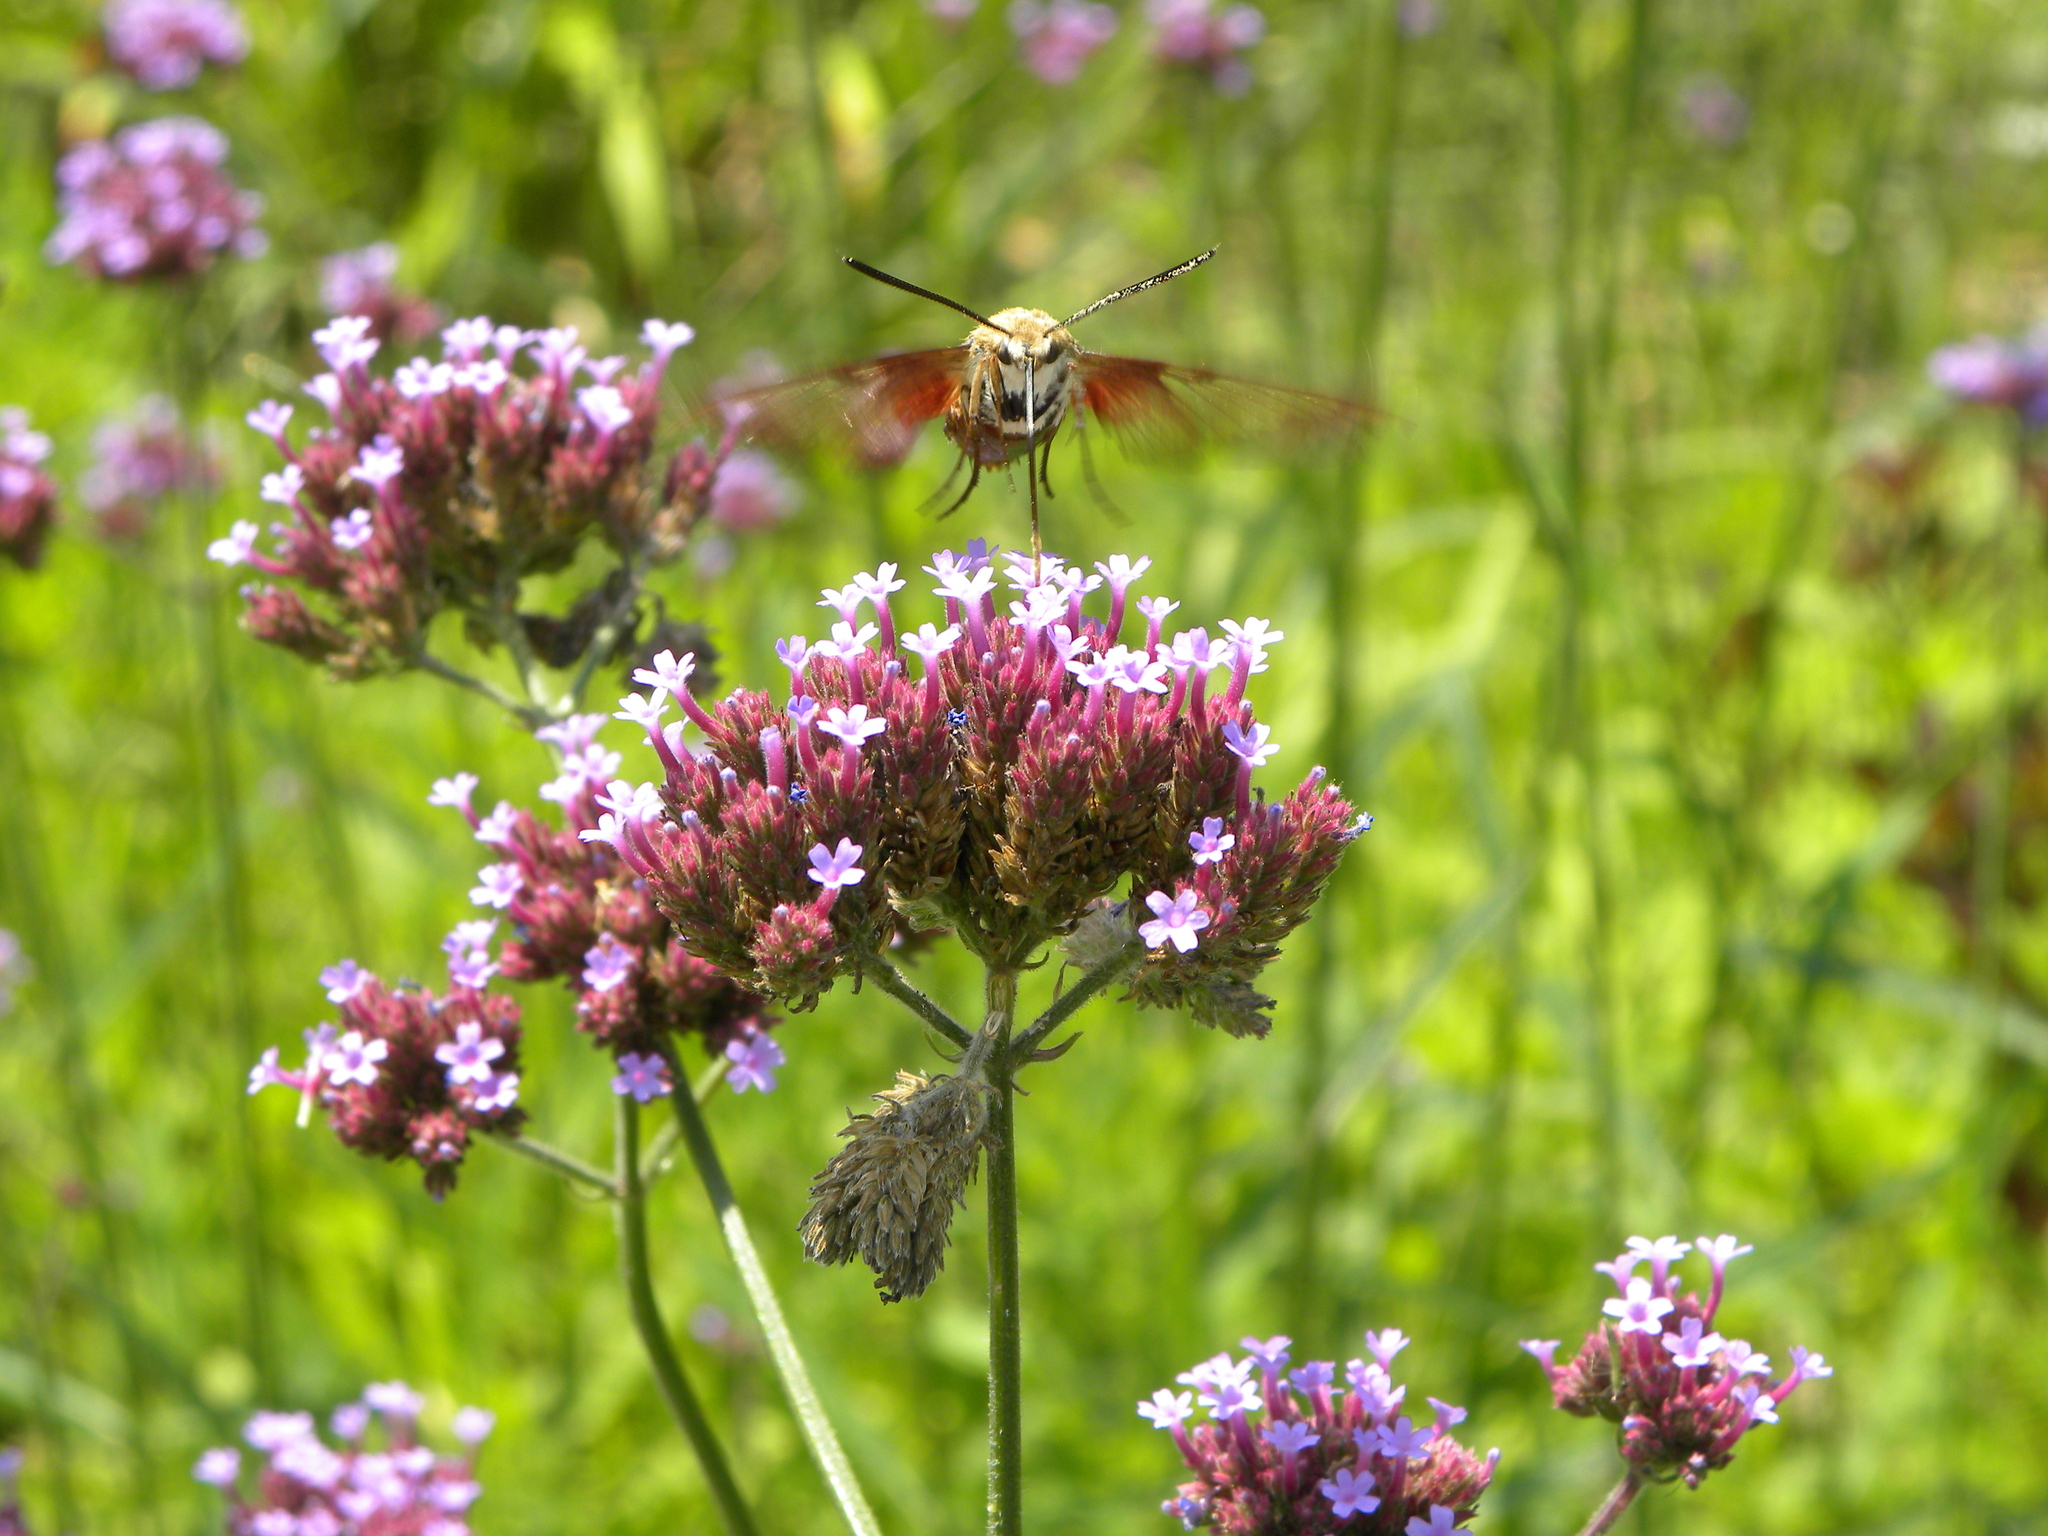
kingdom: Animalia
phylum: Arthropoda
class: Insecta
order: Lepidoptera
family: Sphingidae
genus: Hemaris
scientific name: Hemaris thysbe
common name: Common clear-wing
